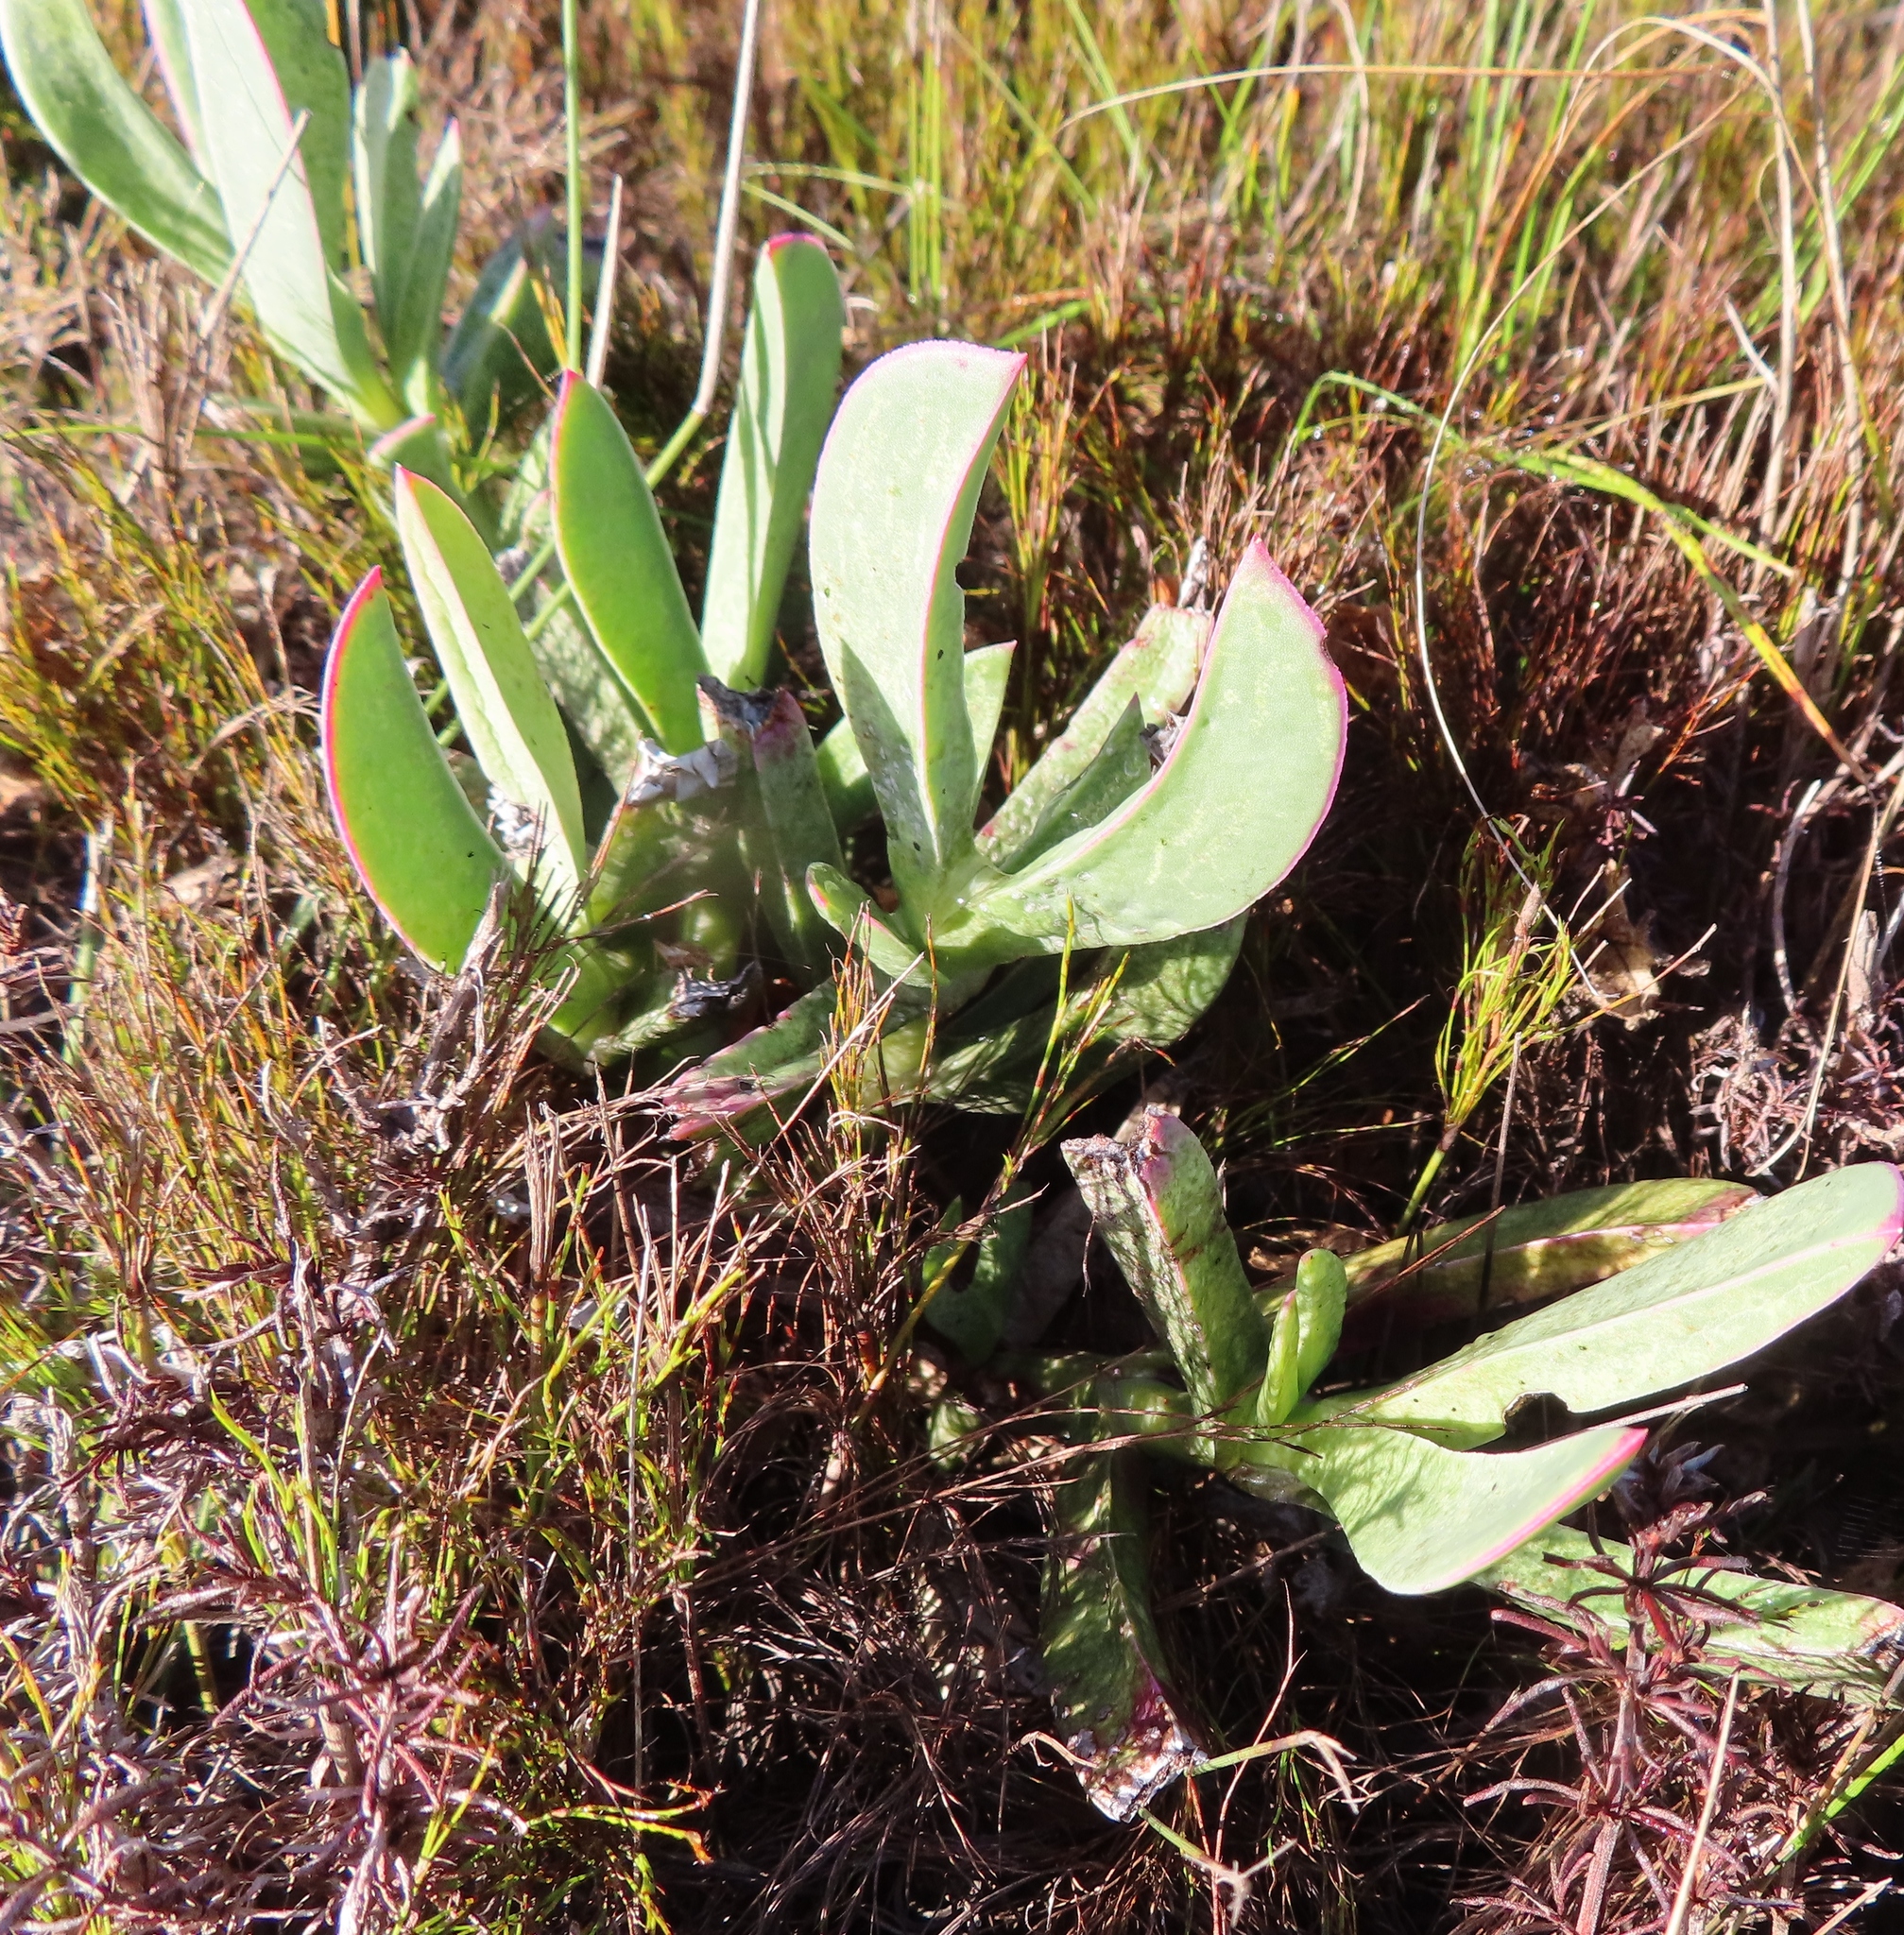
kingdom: Plantae
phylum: Tracheophyta
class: Magnoliopsida
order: Caryophyllales
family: Aizoaceae
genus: Carpobrotus
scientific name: Carpobrotus acinaciformis
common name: Sally-my-handsome
